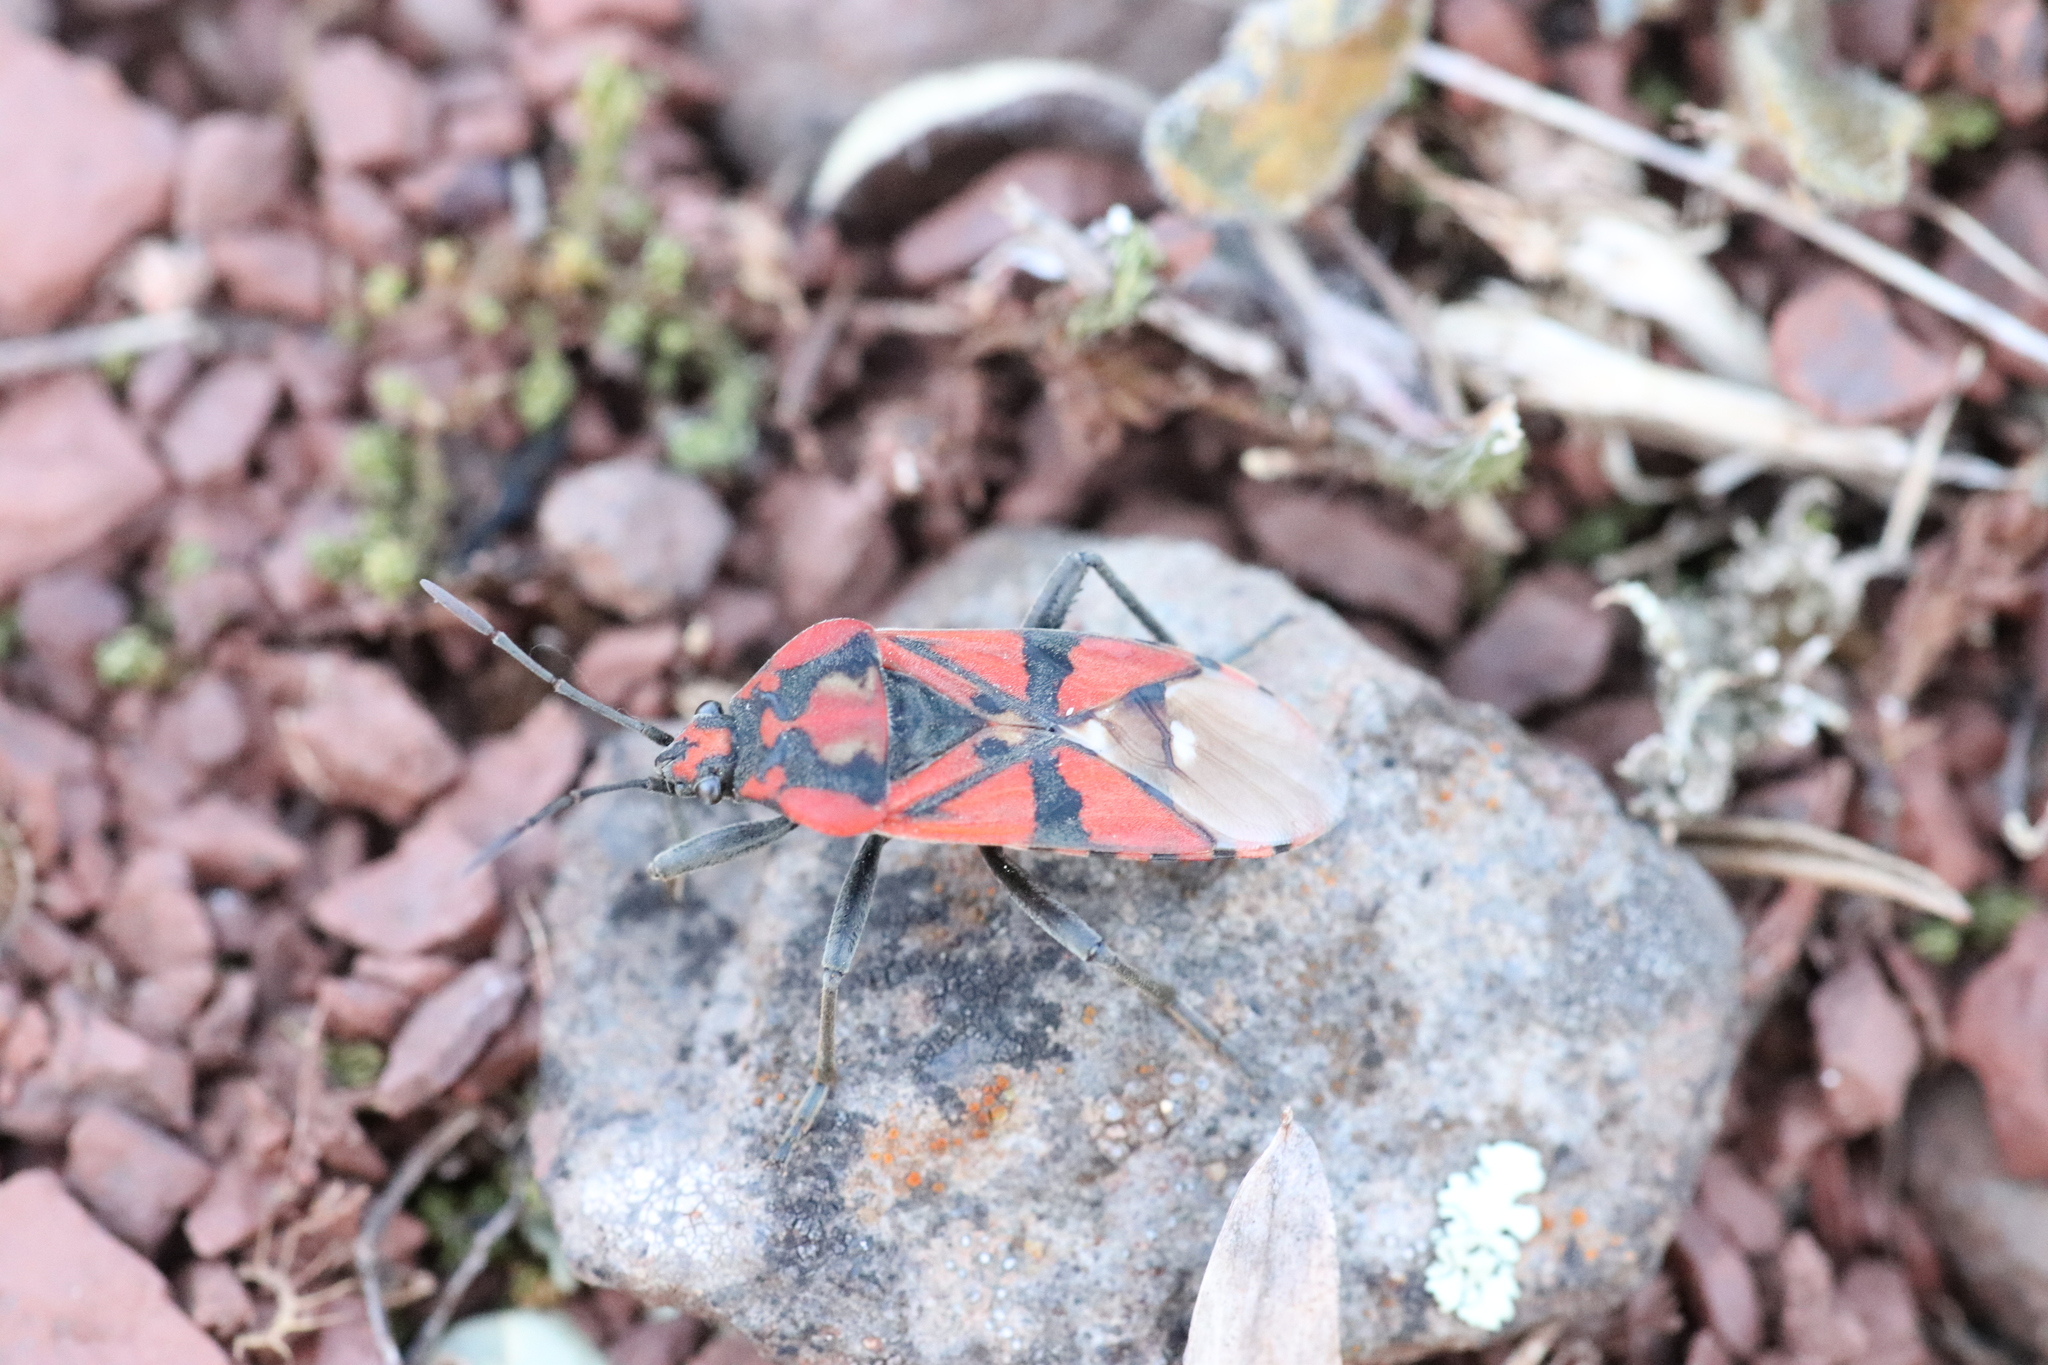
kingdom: Animalia
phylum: Arthropoda
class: Insecta
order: Hemiptera
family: Lygaeidae
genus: Spilostethus
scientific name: Spilostethus pandurus
